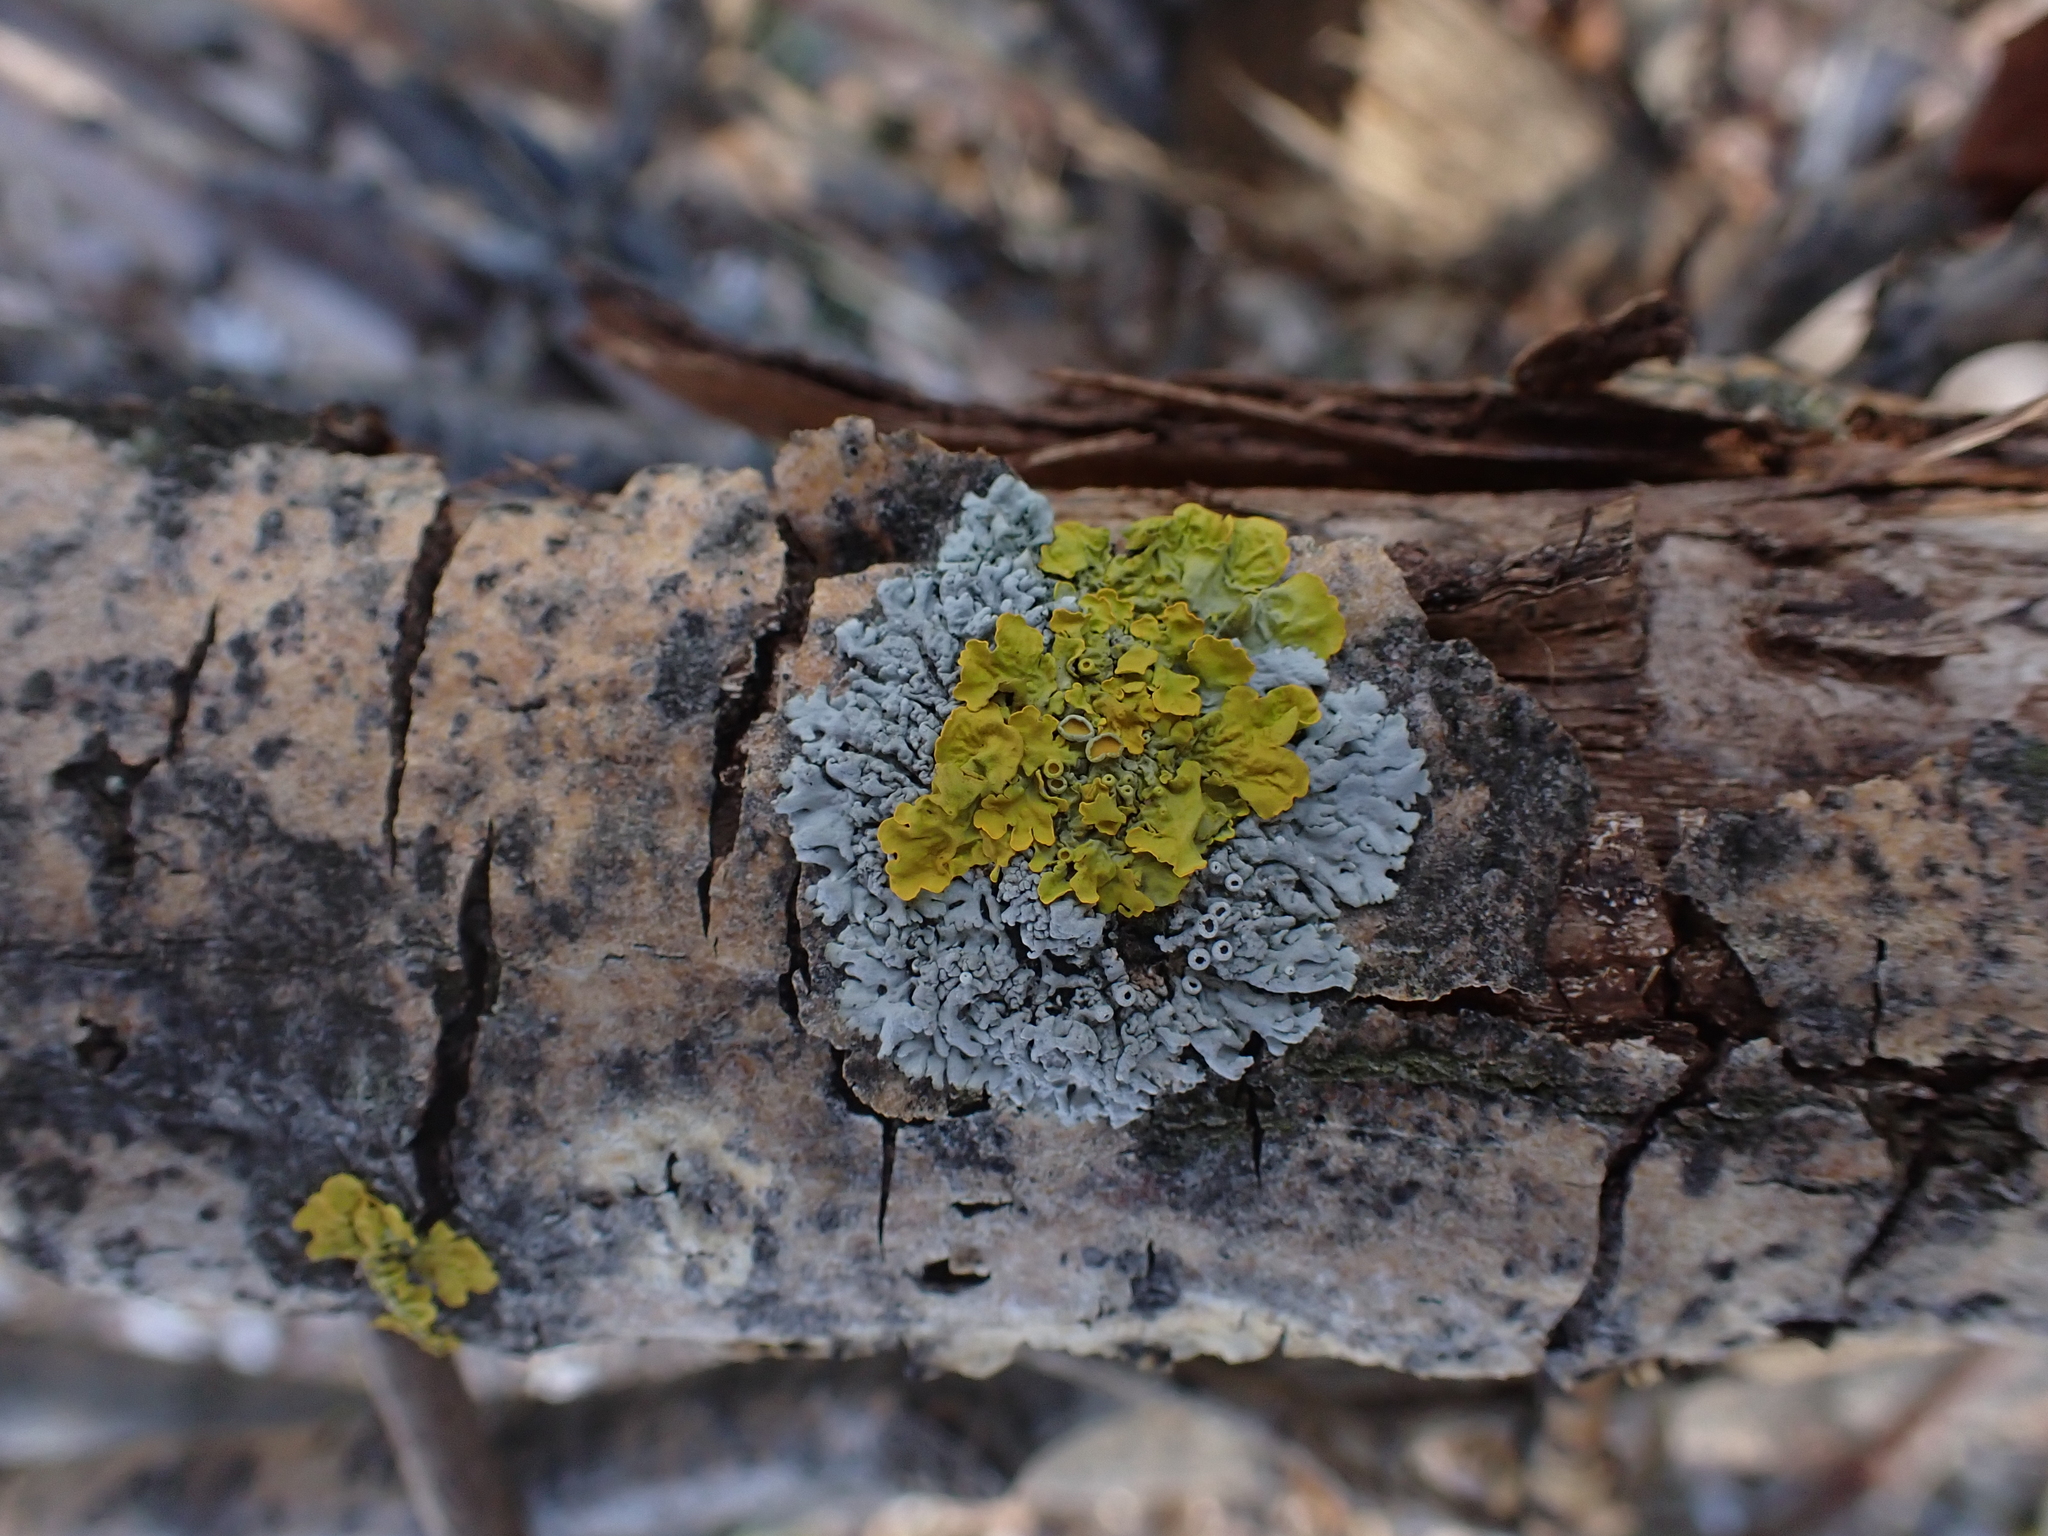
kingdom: Fungi
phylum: Ascomycota
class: Lecanoromycetes
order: Caliciales
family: Physciaceae
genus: Physcia
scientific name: Physcia stellaris
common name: Star rosette lichen
